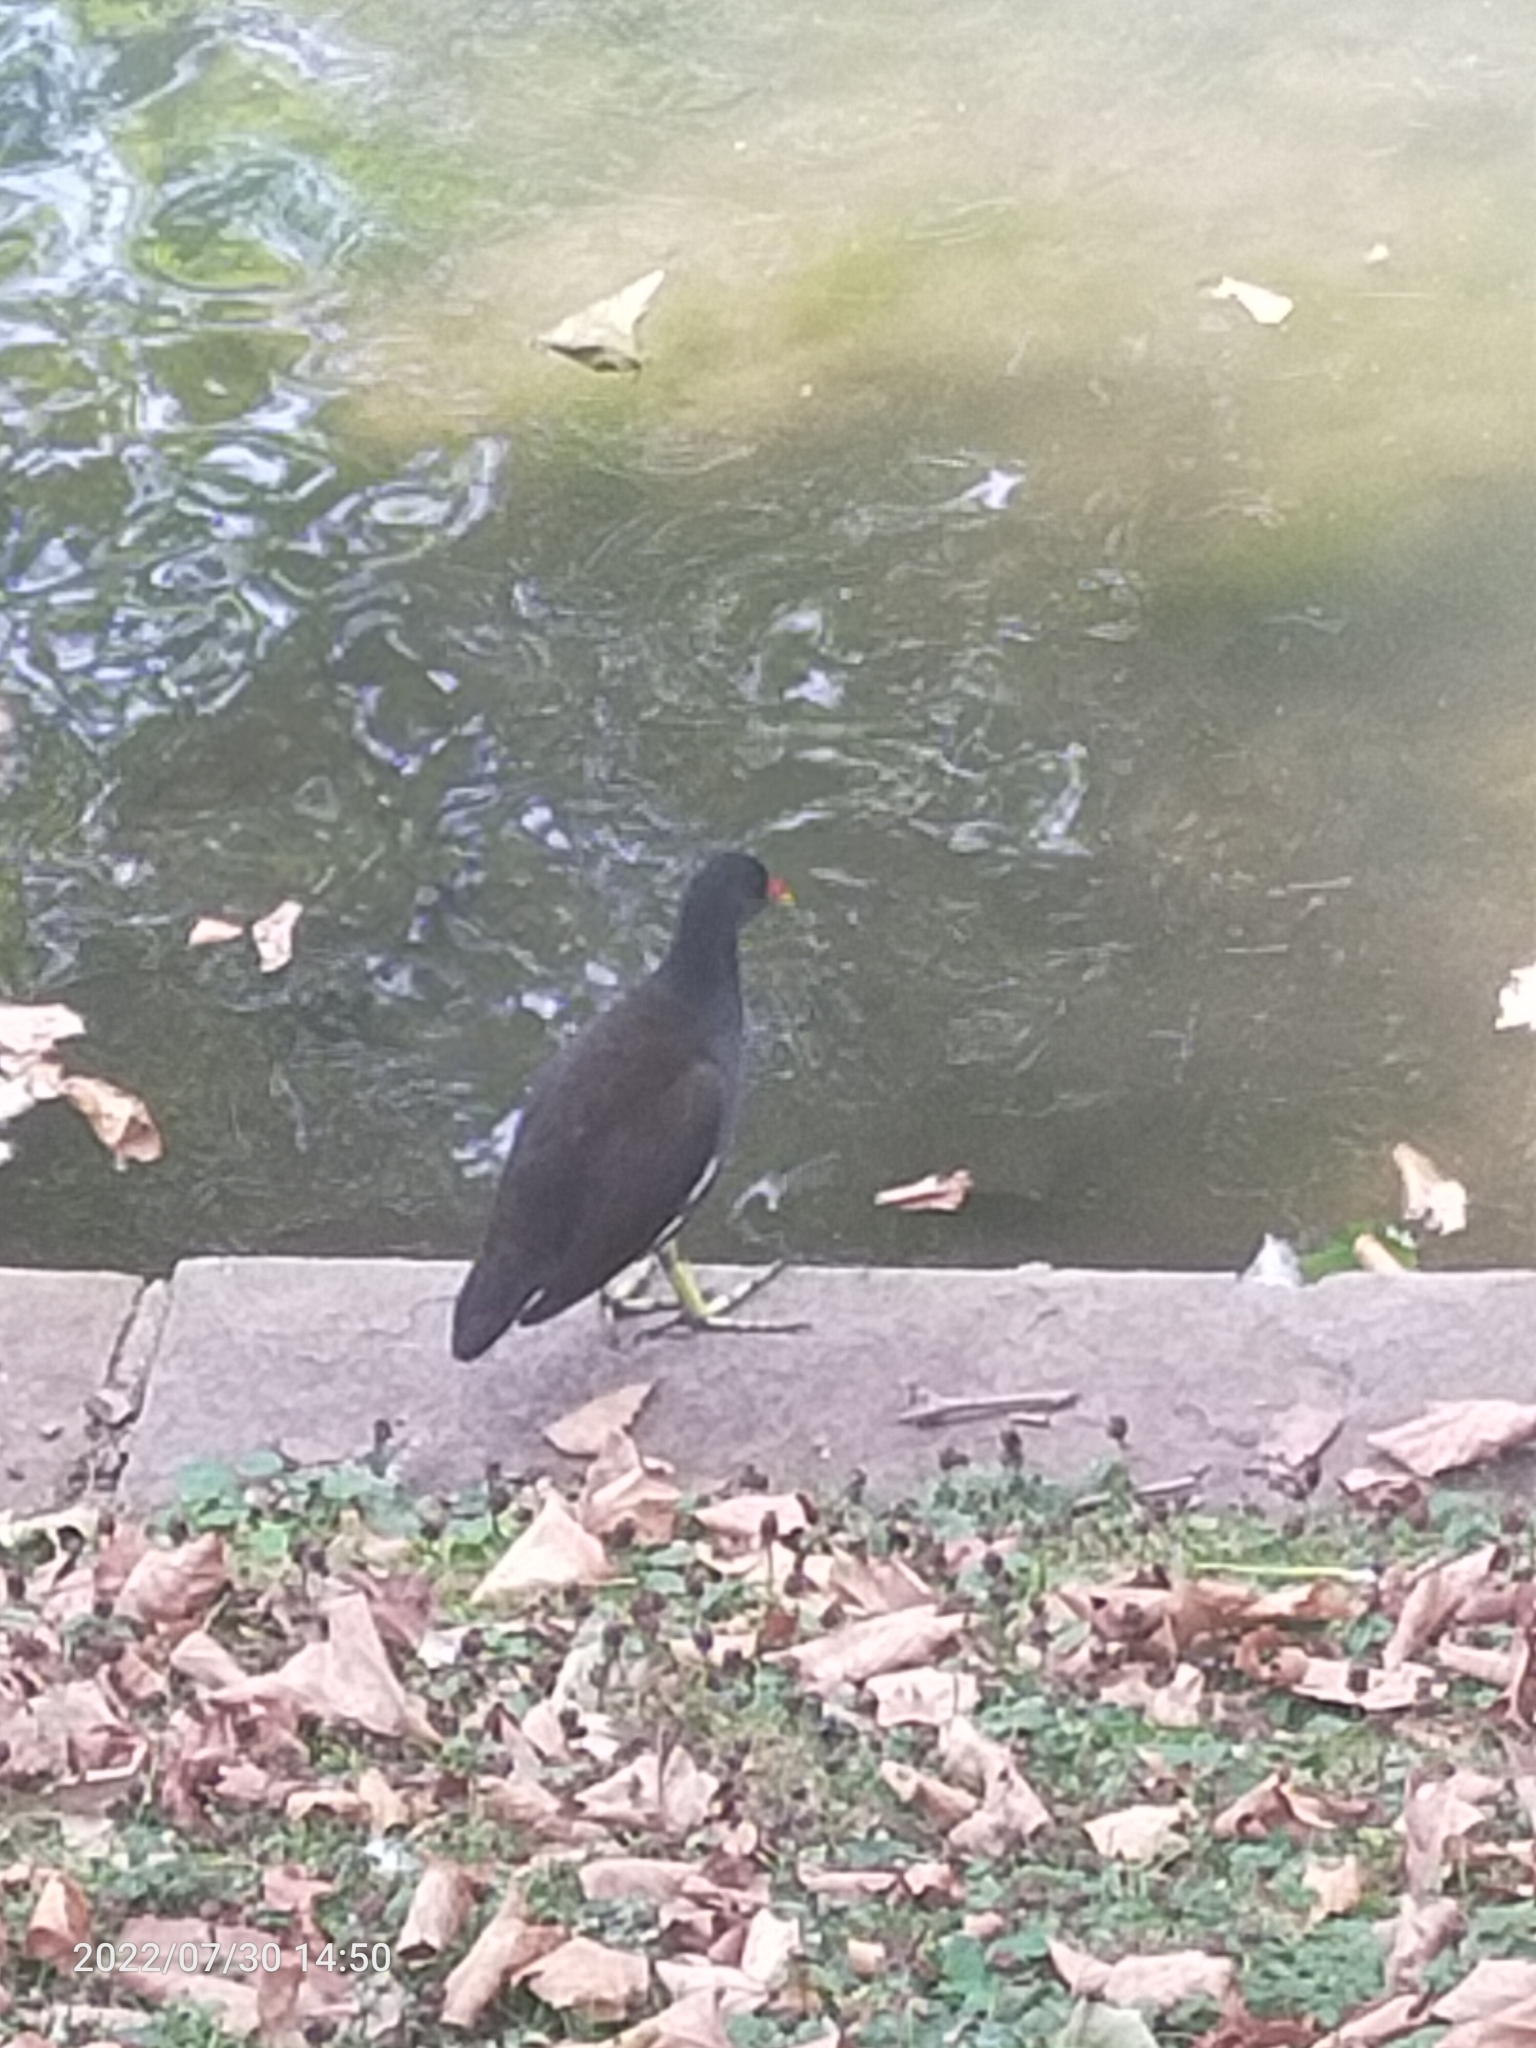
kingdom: Animalia
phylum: Chordata
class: Aves
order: Gruiformes
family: Rallidae
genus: Gallinula
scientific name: Gallinula chloropus
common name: Common moorhen
